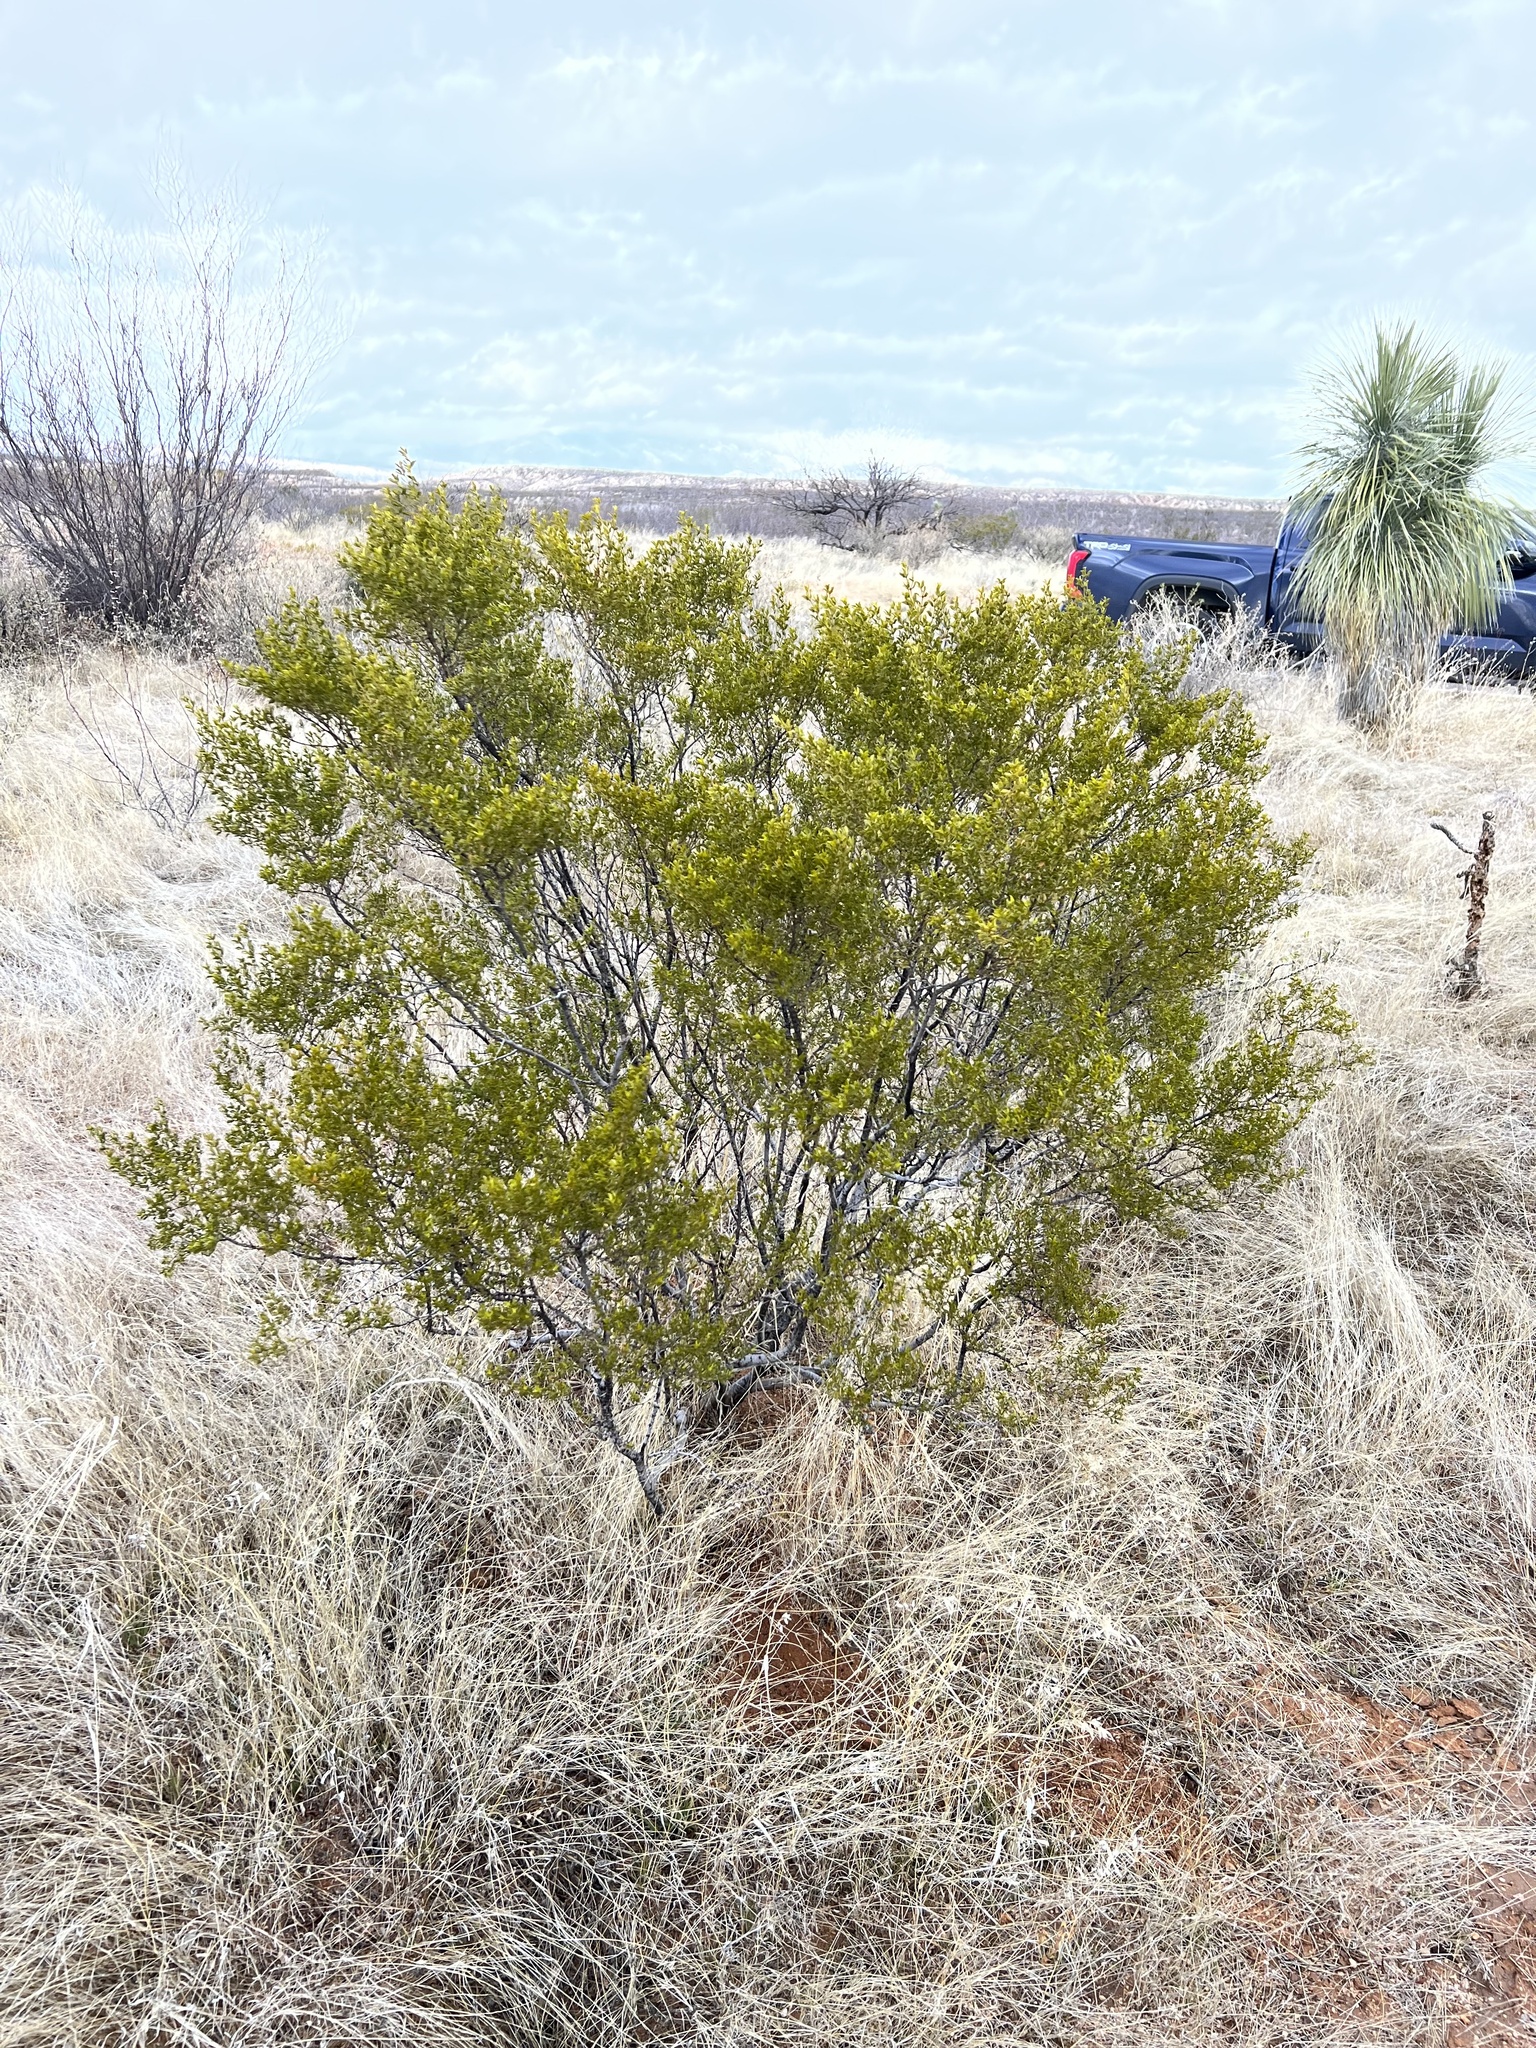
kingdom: Plantae
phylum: Tracheophyta
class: Magnoliopsida
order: Zygophyllales
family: Zygophyllaceae
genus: Larrea
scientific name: Larrea tridentata
